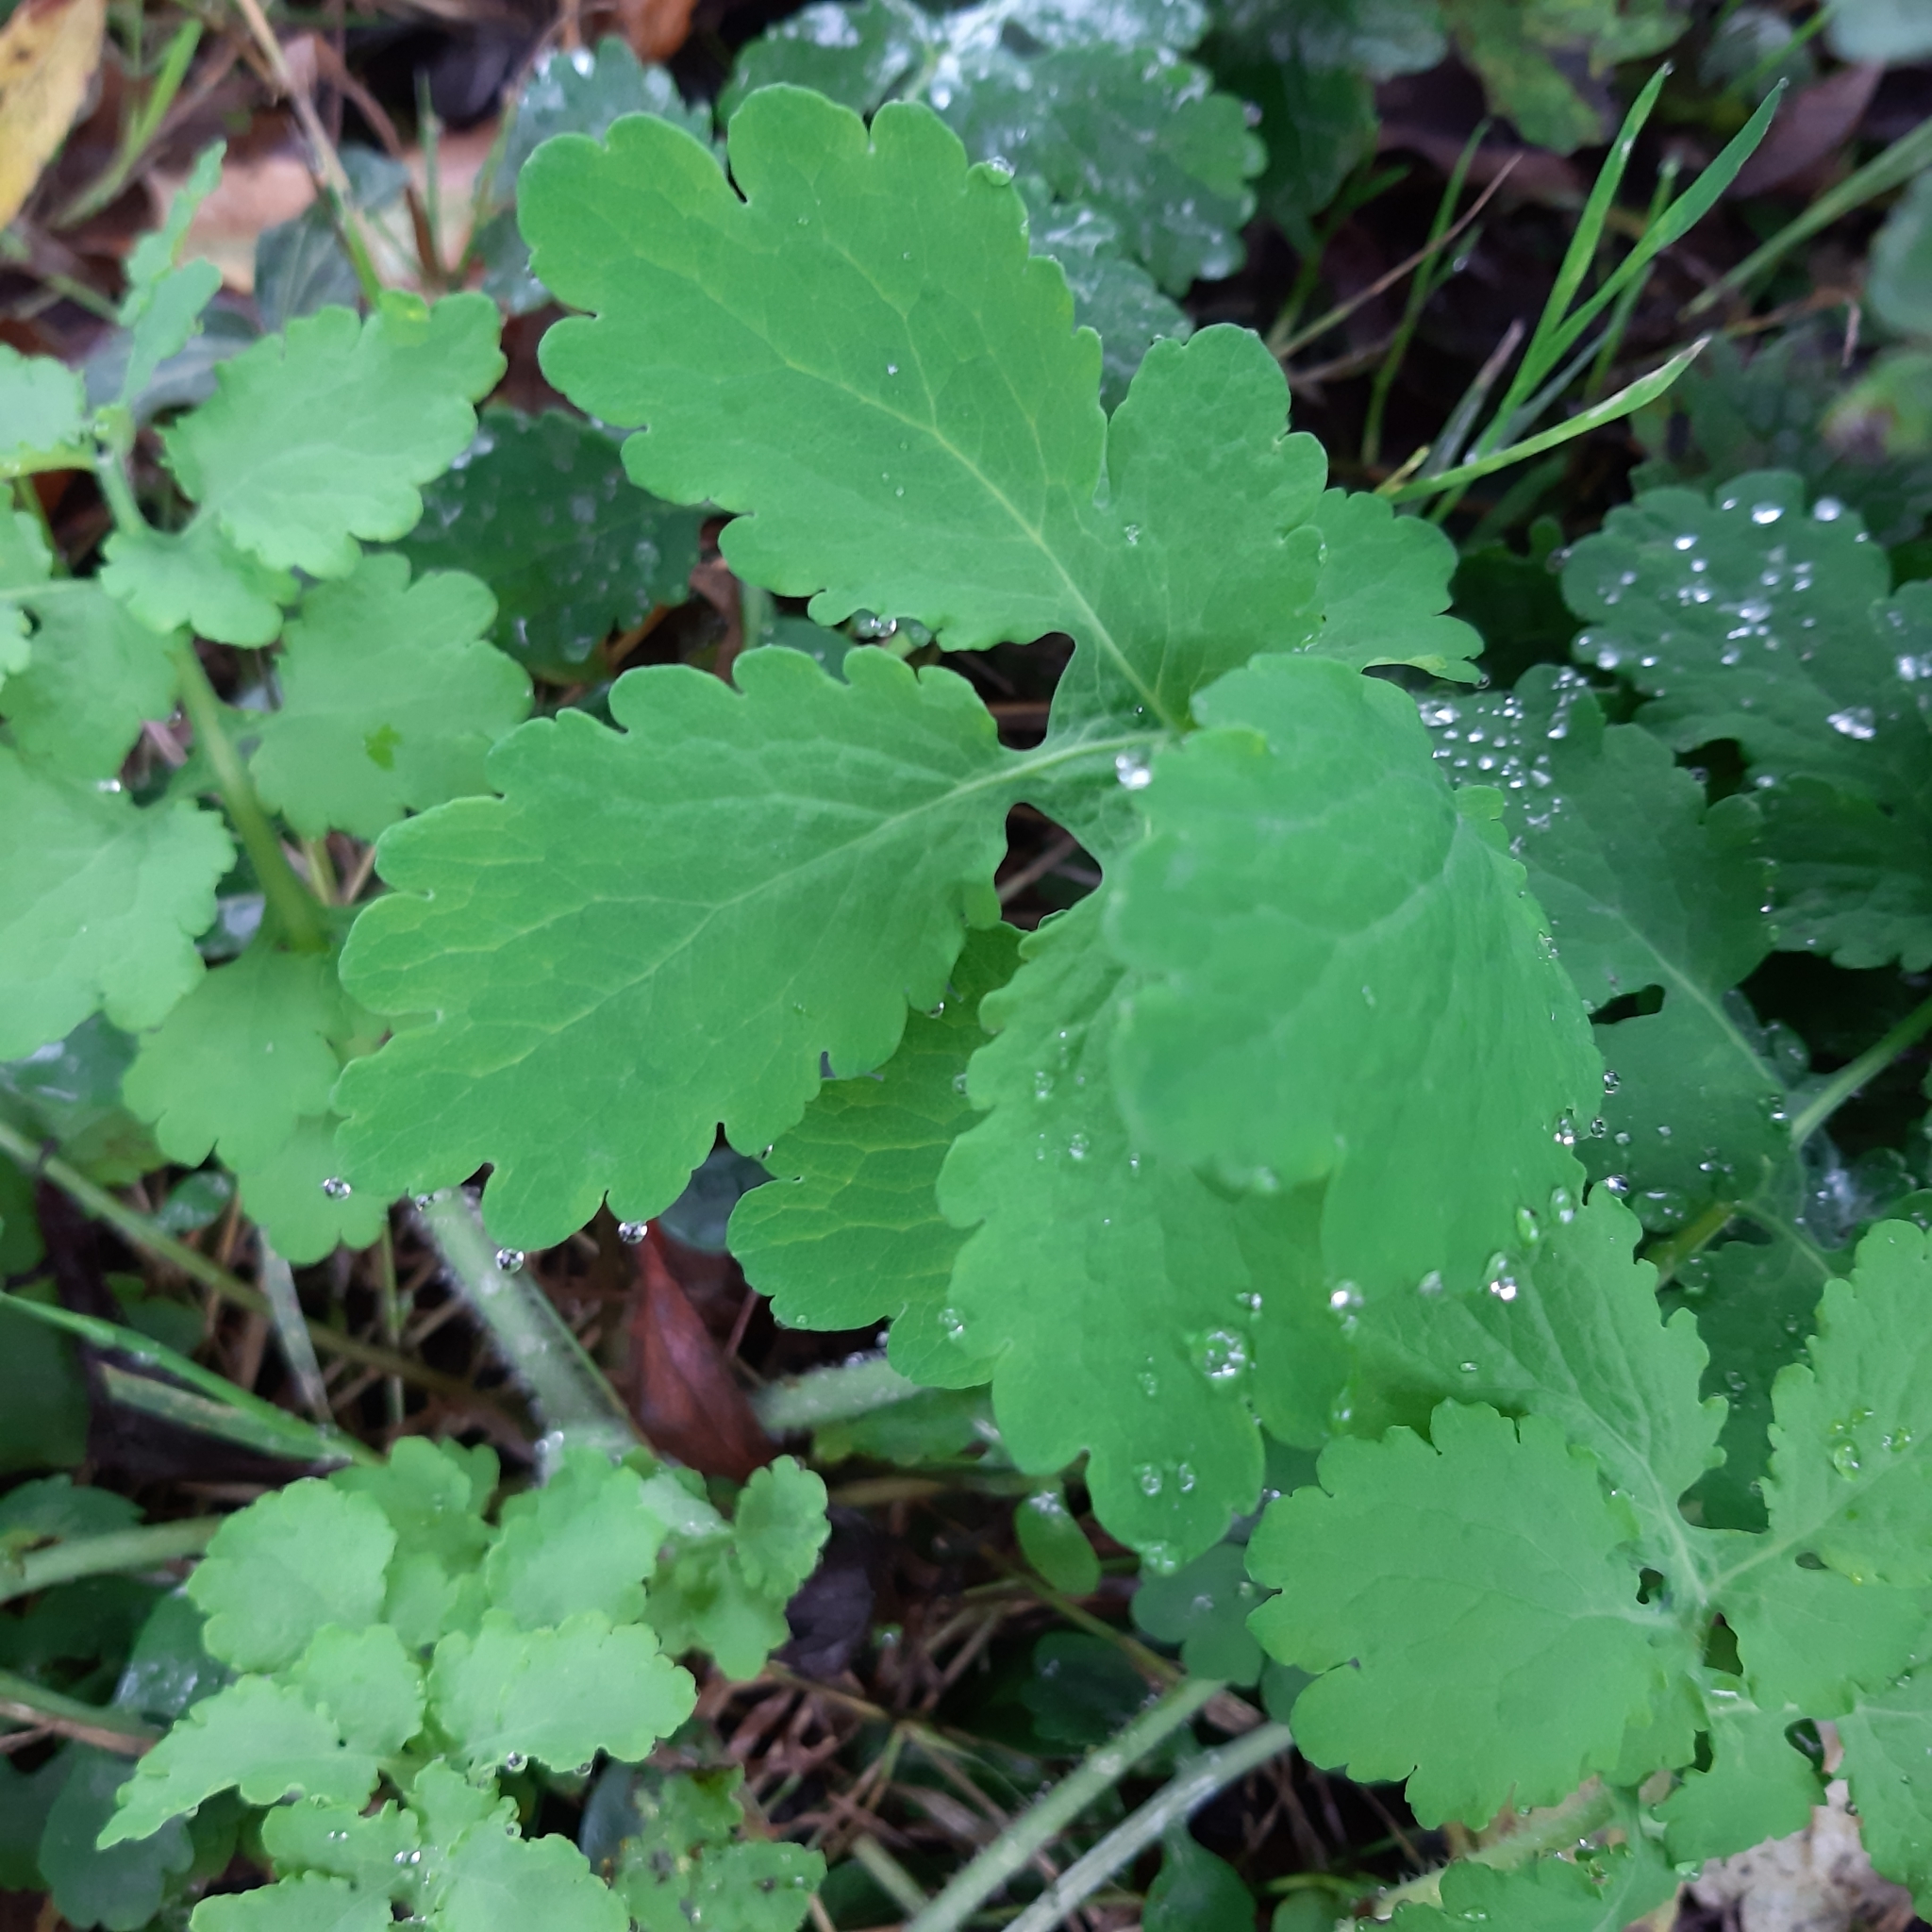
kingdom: Plantae
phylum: Tracheophyta
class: Magnoliopsida
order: Ranunculales
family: Papaveraceae
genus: Chelidonium
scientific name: Chelidonium majus
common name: Greater celandine
